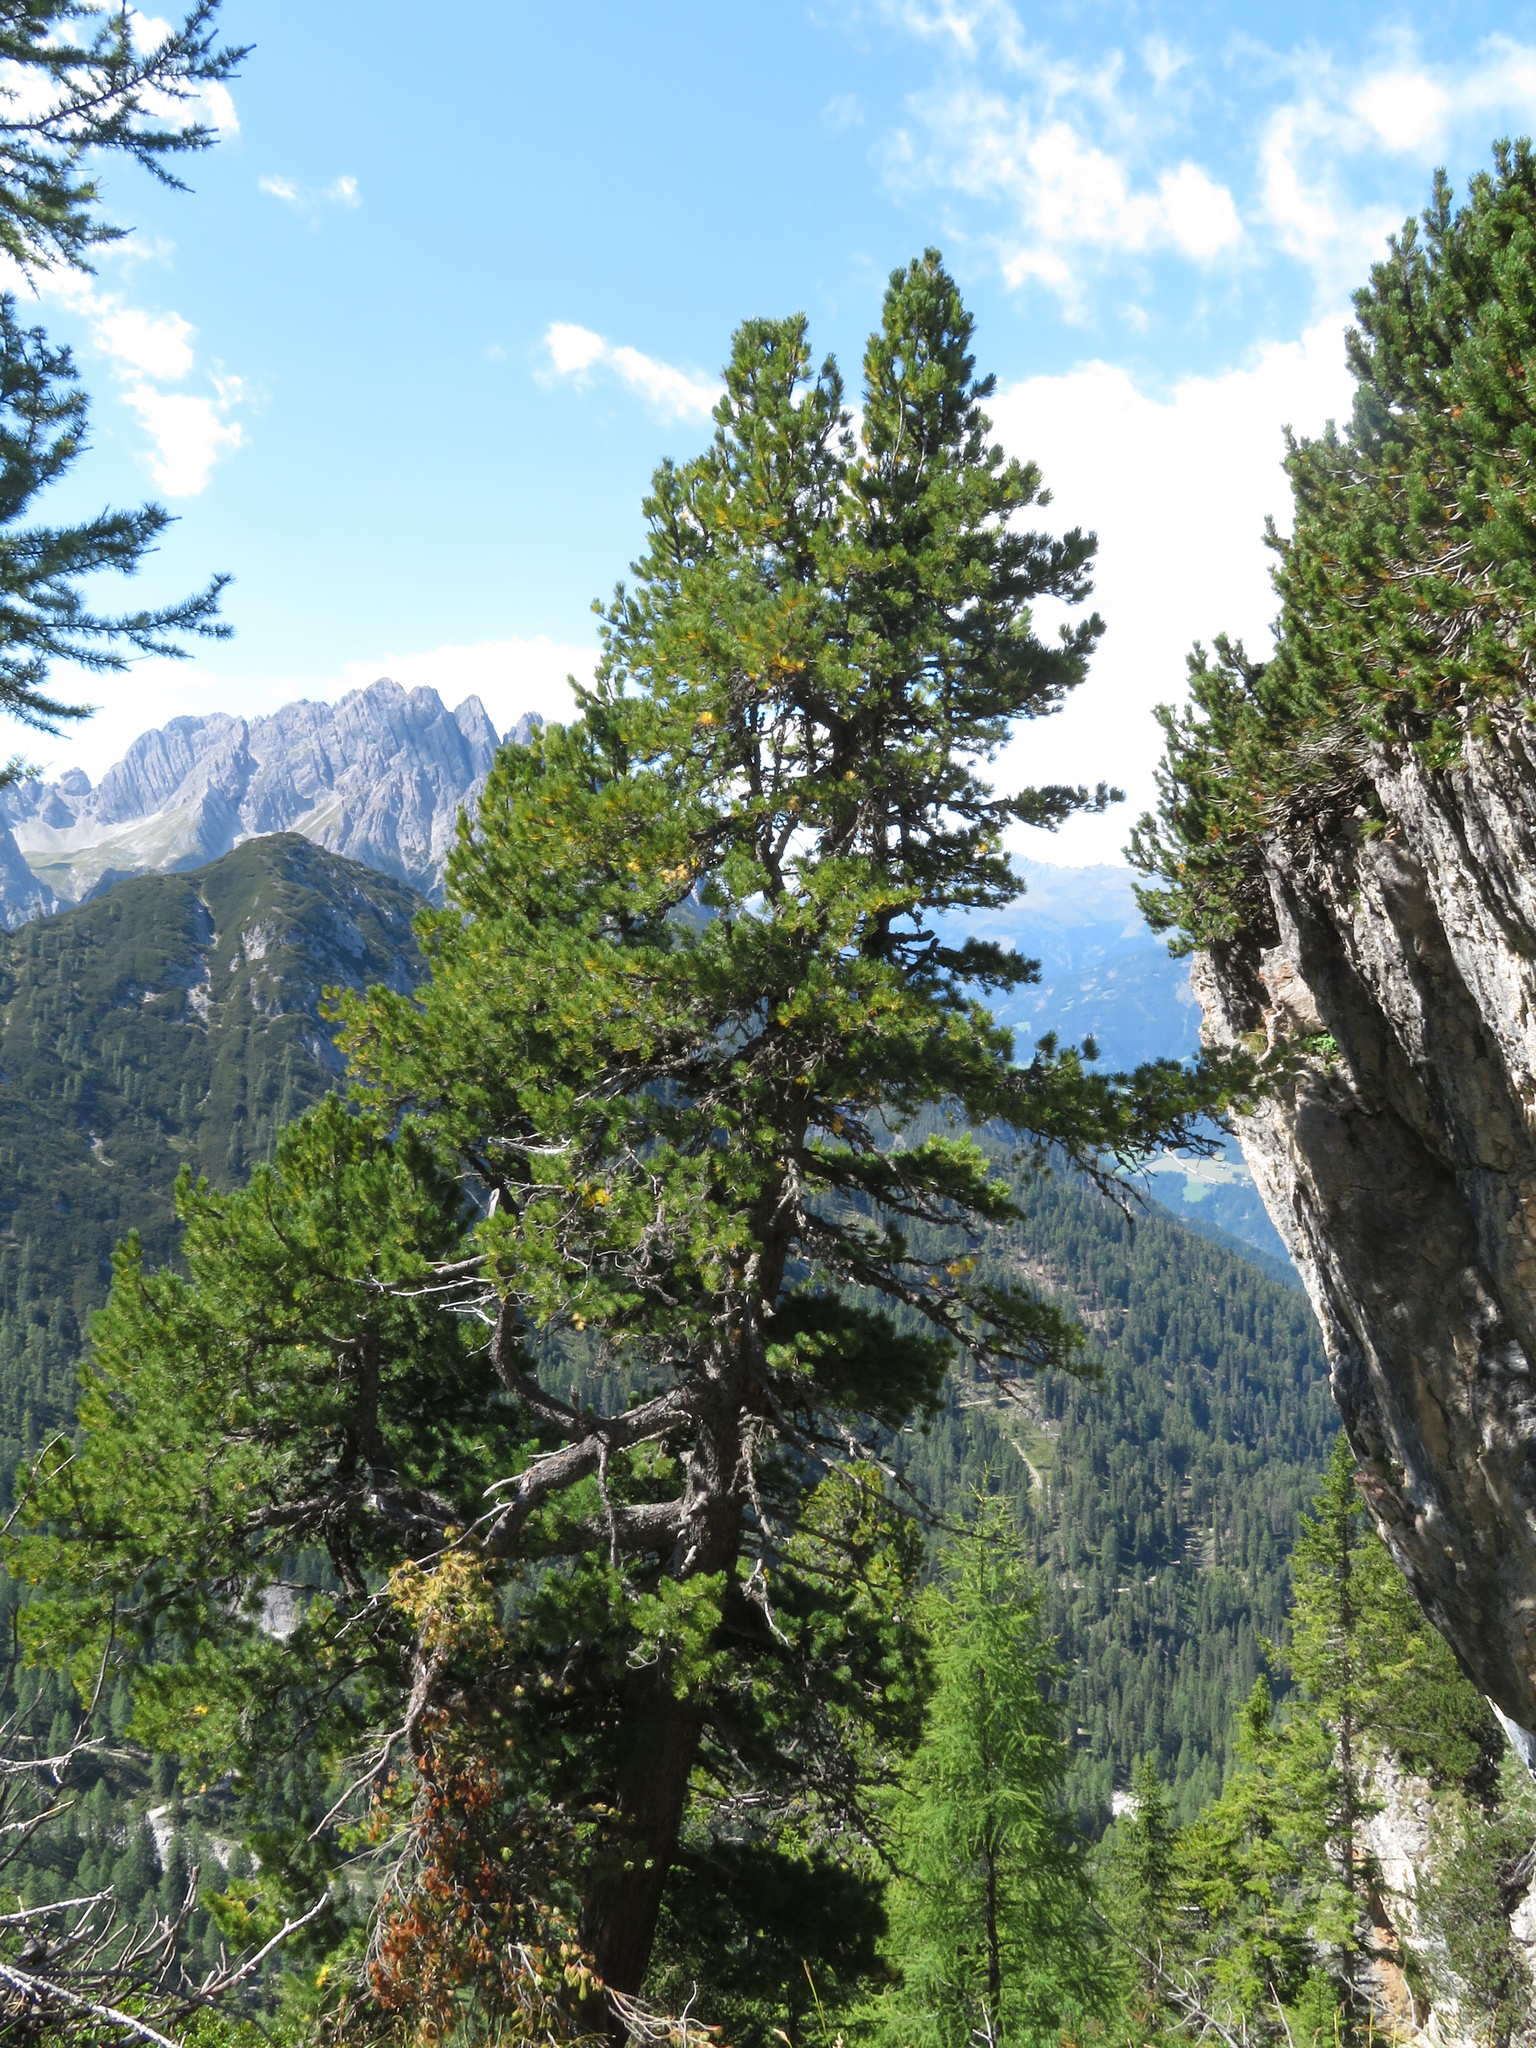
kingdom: Plantae
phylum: Tracheophyta
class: Pinopsida
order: Pinales
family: Pinaceae
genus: Pinus
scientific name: Pinus cembra
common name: Arolla pine
